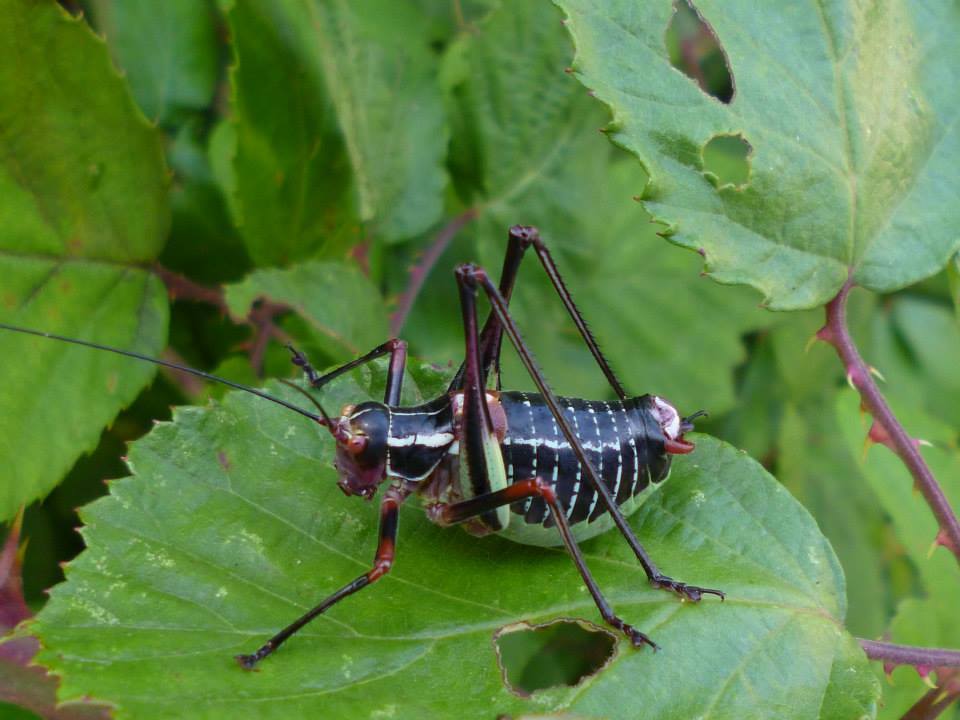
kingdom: Animalia
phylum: Arthropoda
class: Insecta
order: Orthoptera
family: Tettigoniidae
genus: Barbitistes
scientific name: Barbitistes ocskayi
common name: Black saw bush-cricket
